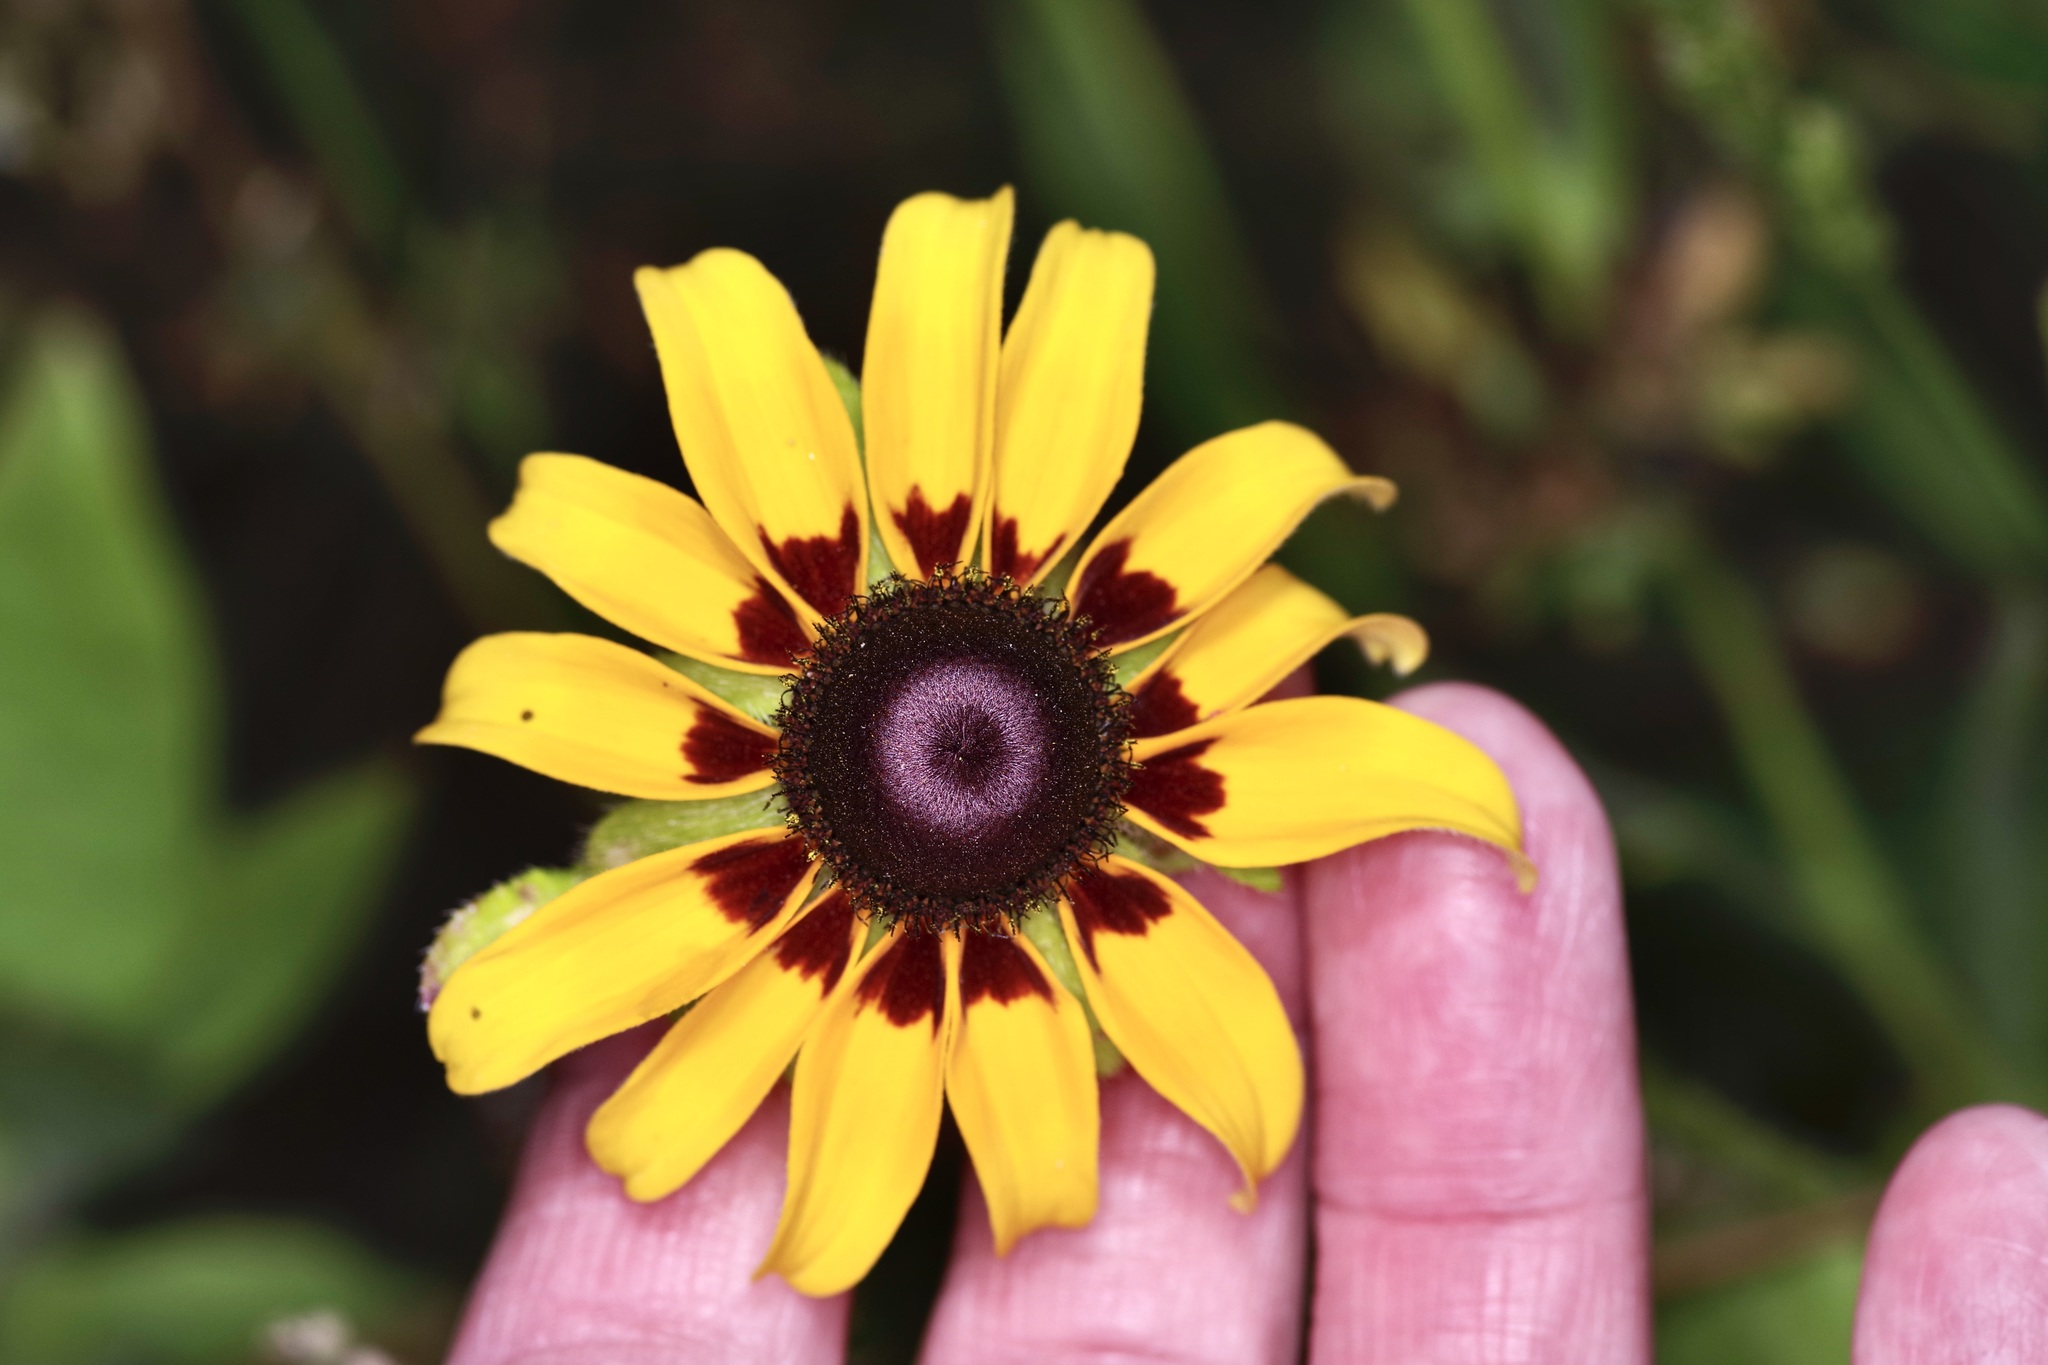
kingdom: Plantae
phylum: Tracheophyta
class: Magnoliopsida
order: Asterales
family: Asteraceae
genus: Rudbeckia
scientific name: Rudbeckia hirta
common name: Black-eyed-susan
